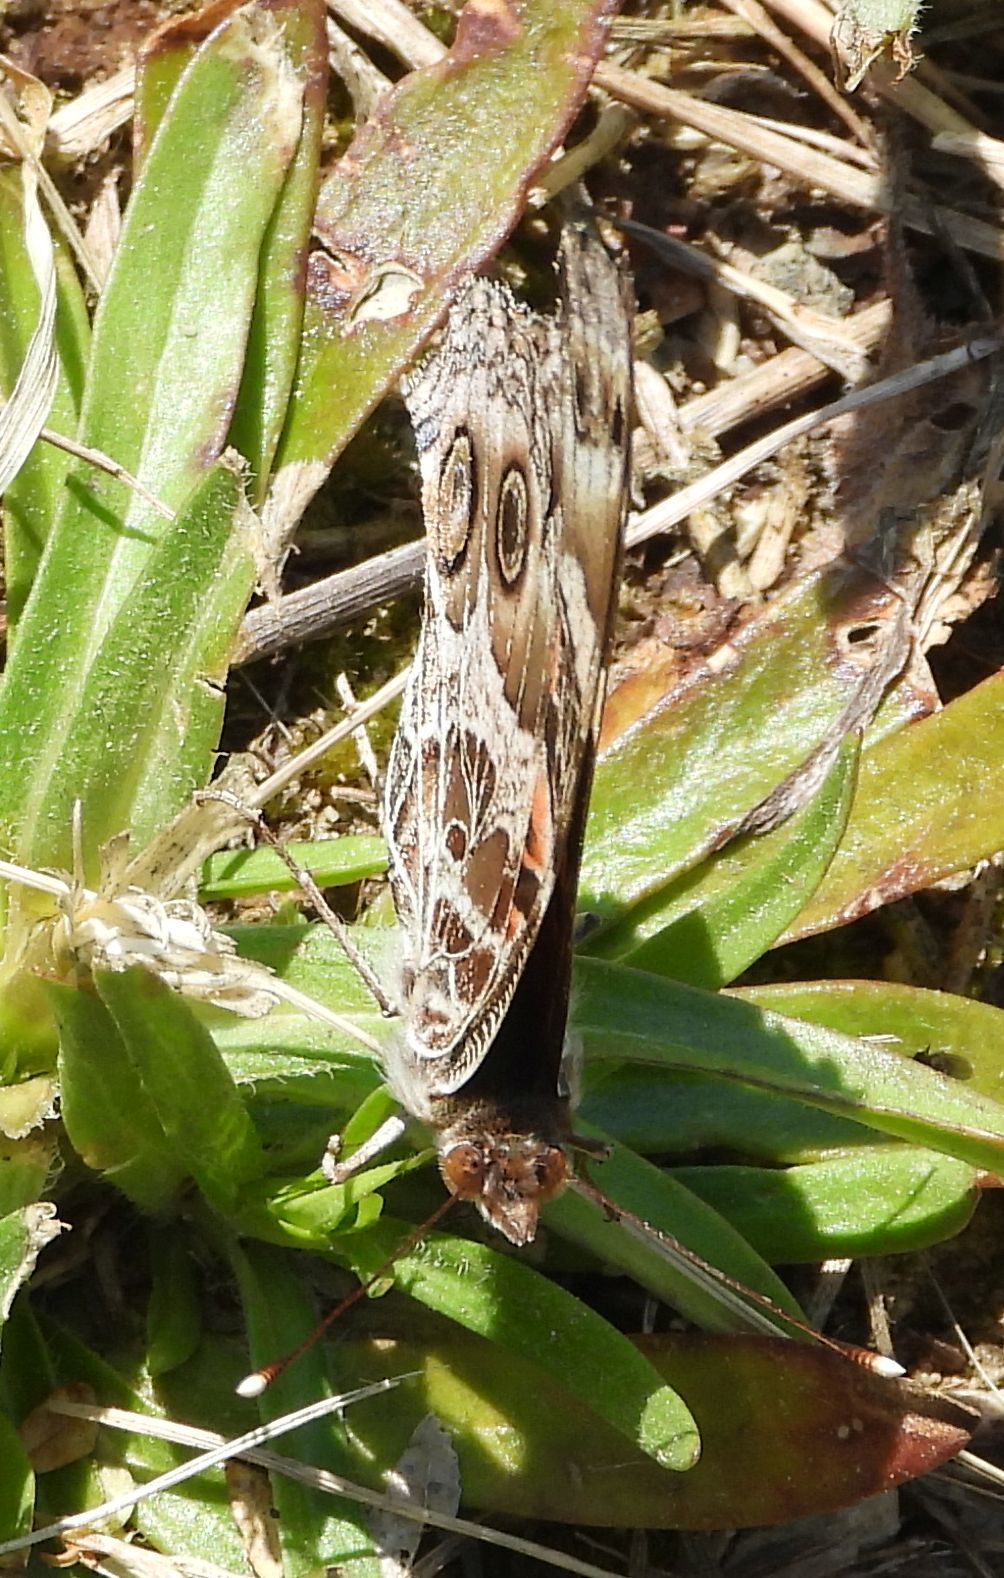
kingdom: Animalia
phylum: Arthropoda
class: Insecta
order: Lepidoptera
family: Nymphalidae
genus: Vanessa
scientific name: Vanessa virginiensis
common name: American lady
